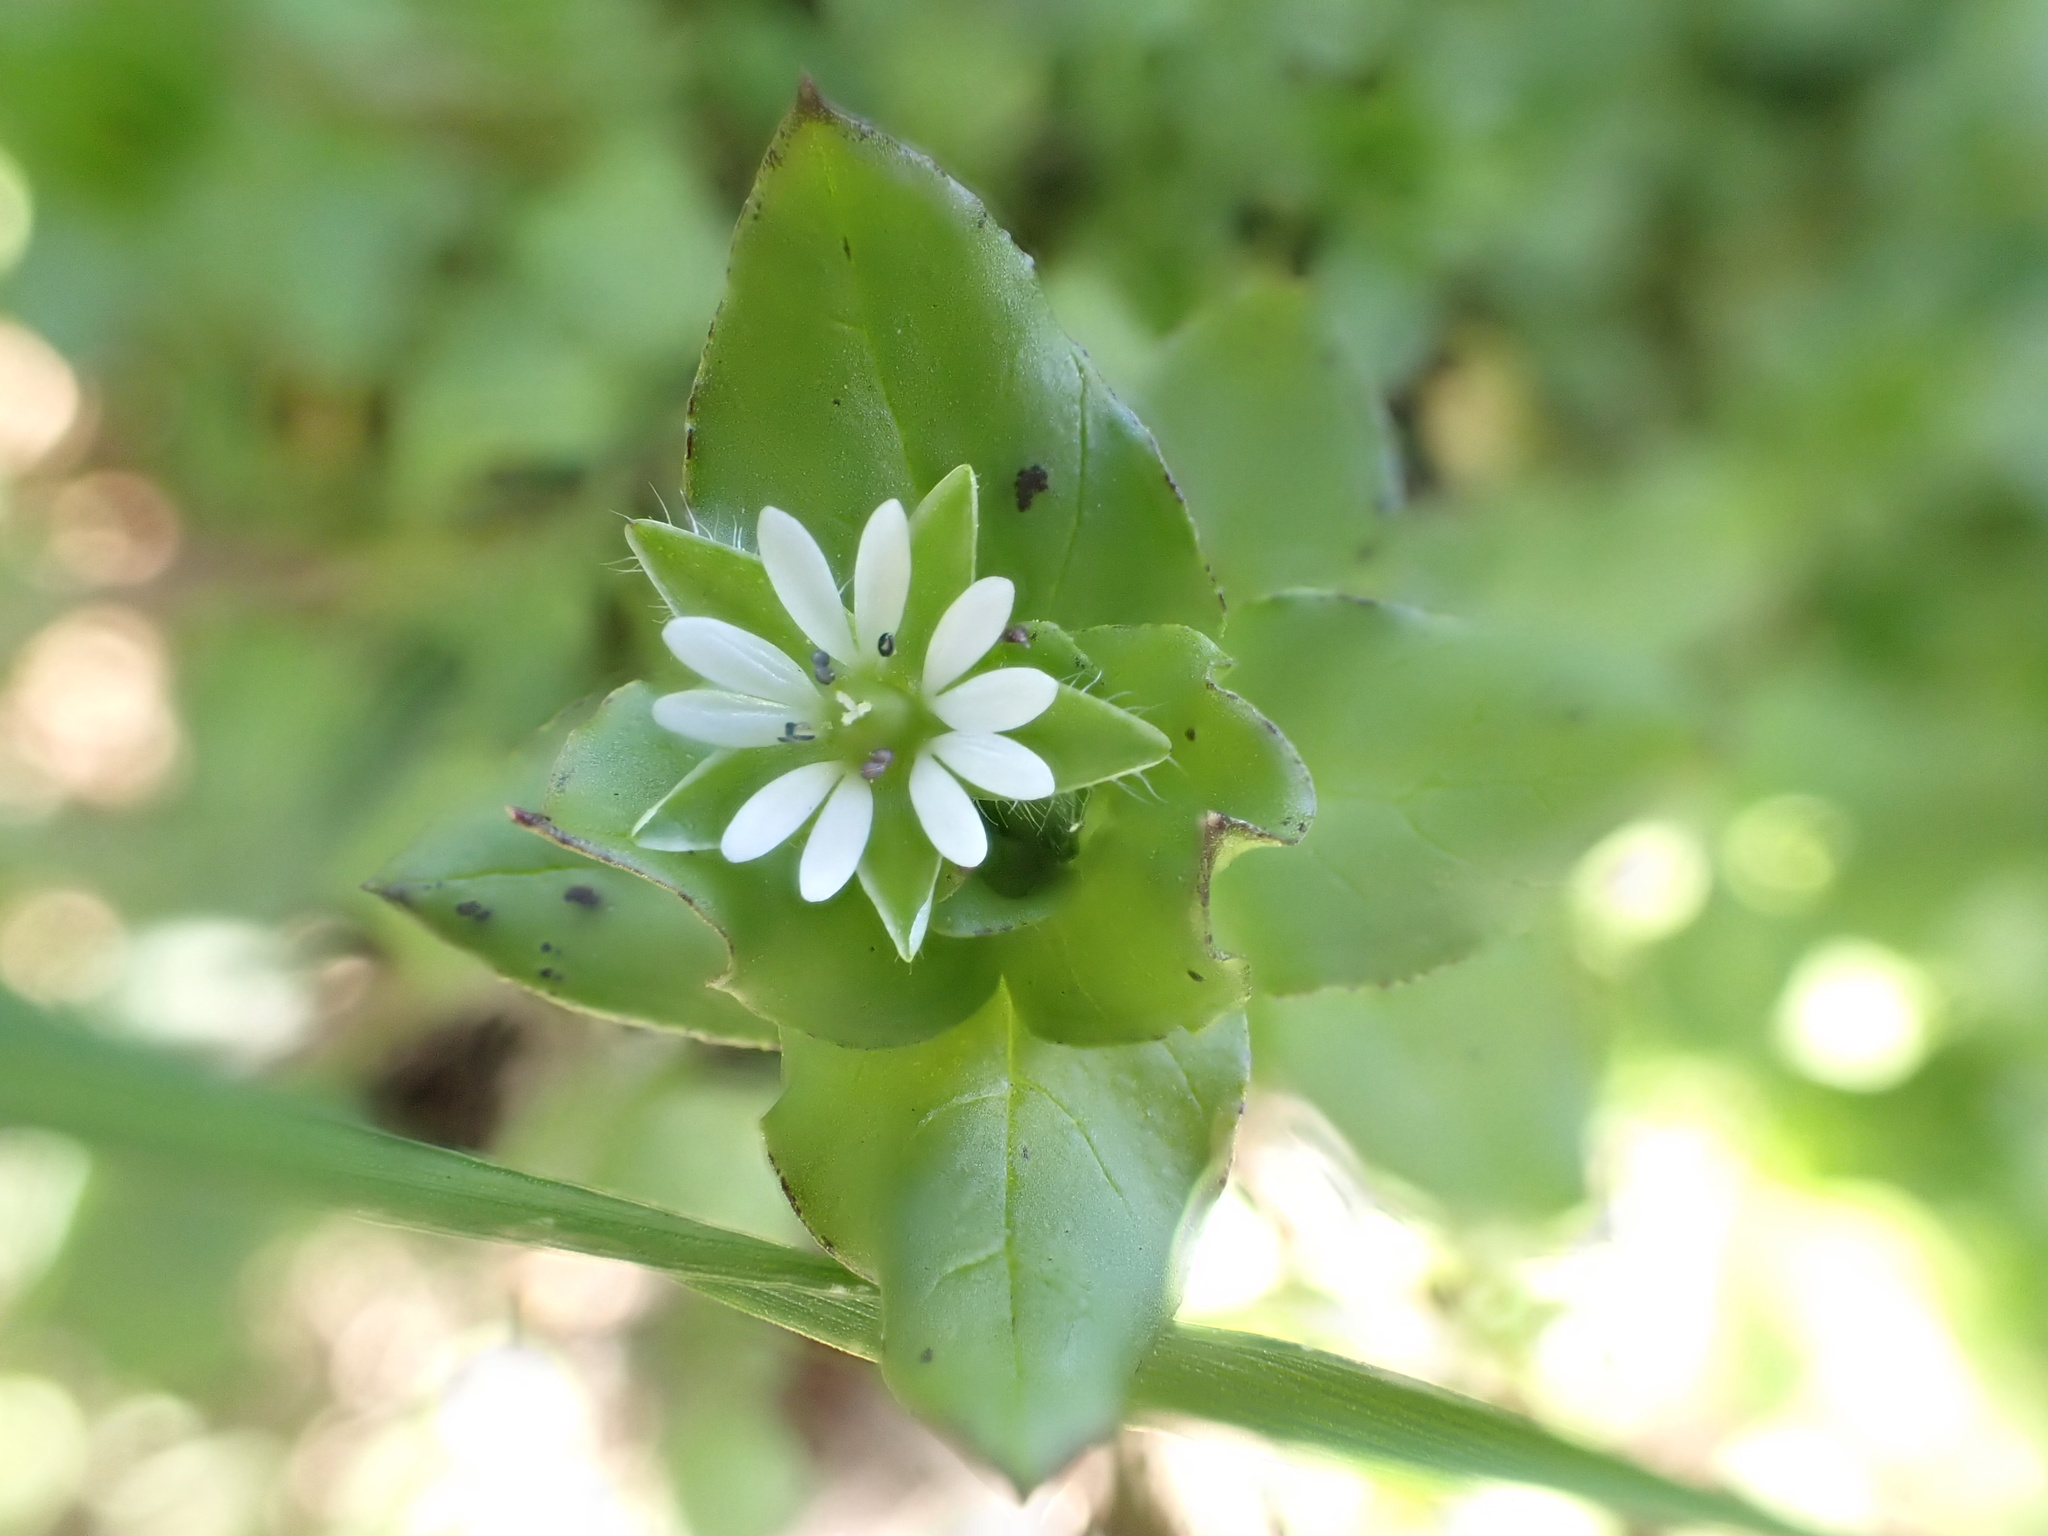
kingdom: Plantae
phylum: Tracheophyta
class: Magnoliopsida
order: Caryophyllales
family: Caryophyllaceae
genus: Stellaria
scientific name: Stellaria media
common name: Common chickweed
